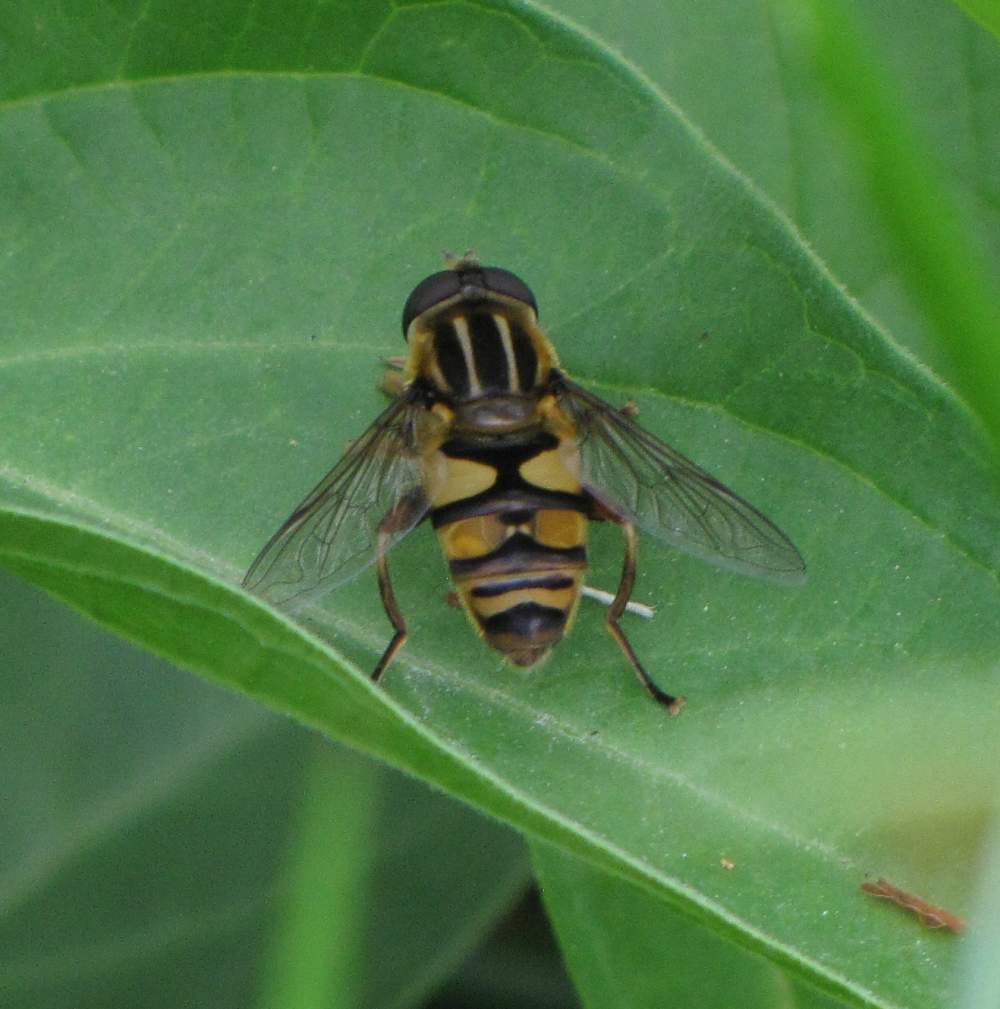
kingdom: Animalia
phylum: Arthropoda
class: Insecta
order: Diptera
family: Syrphidae
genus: Helophilus
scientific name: Helophilus fasciatus
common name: Narrow-headed marsh fly
